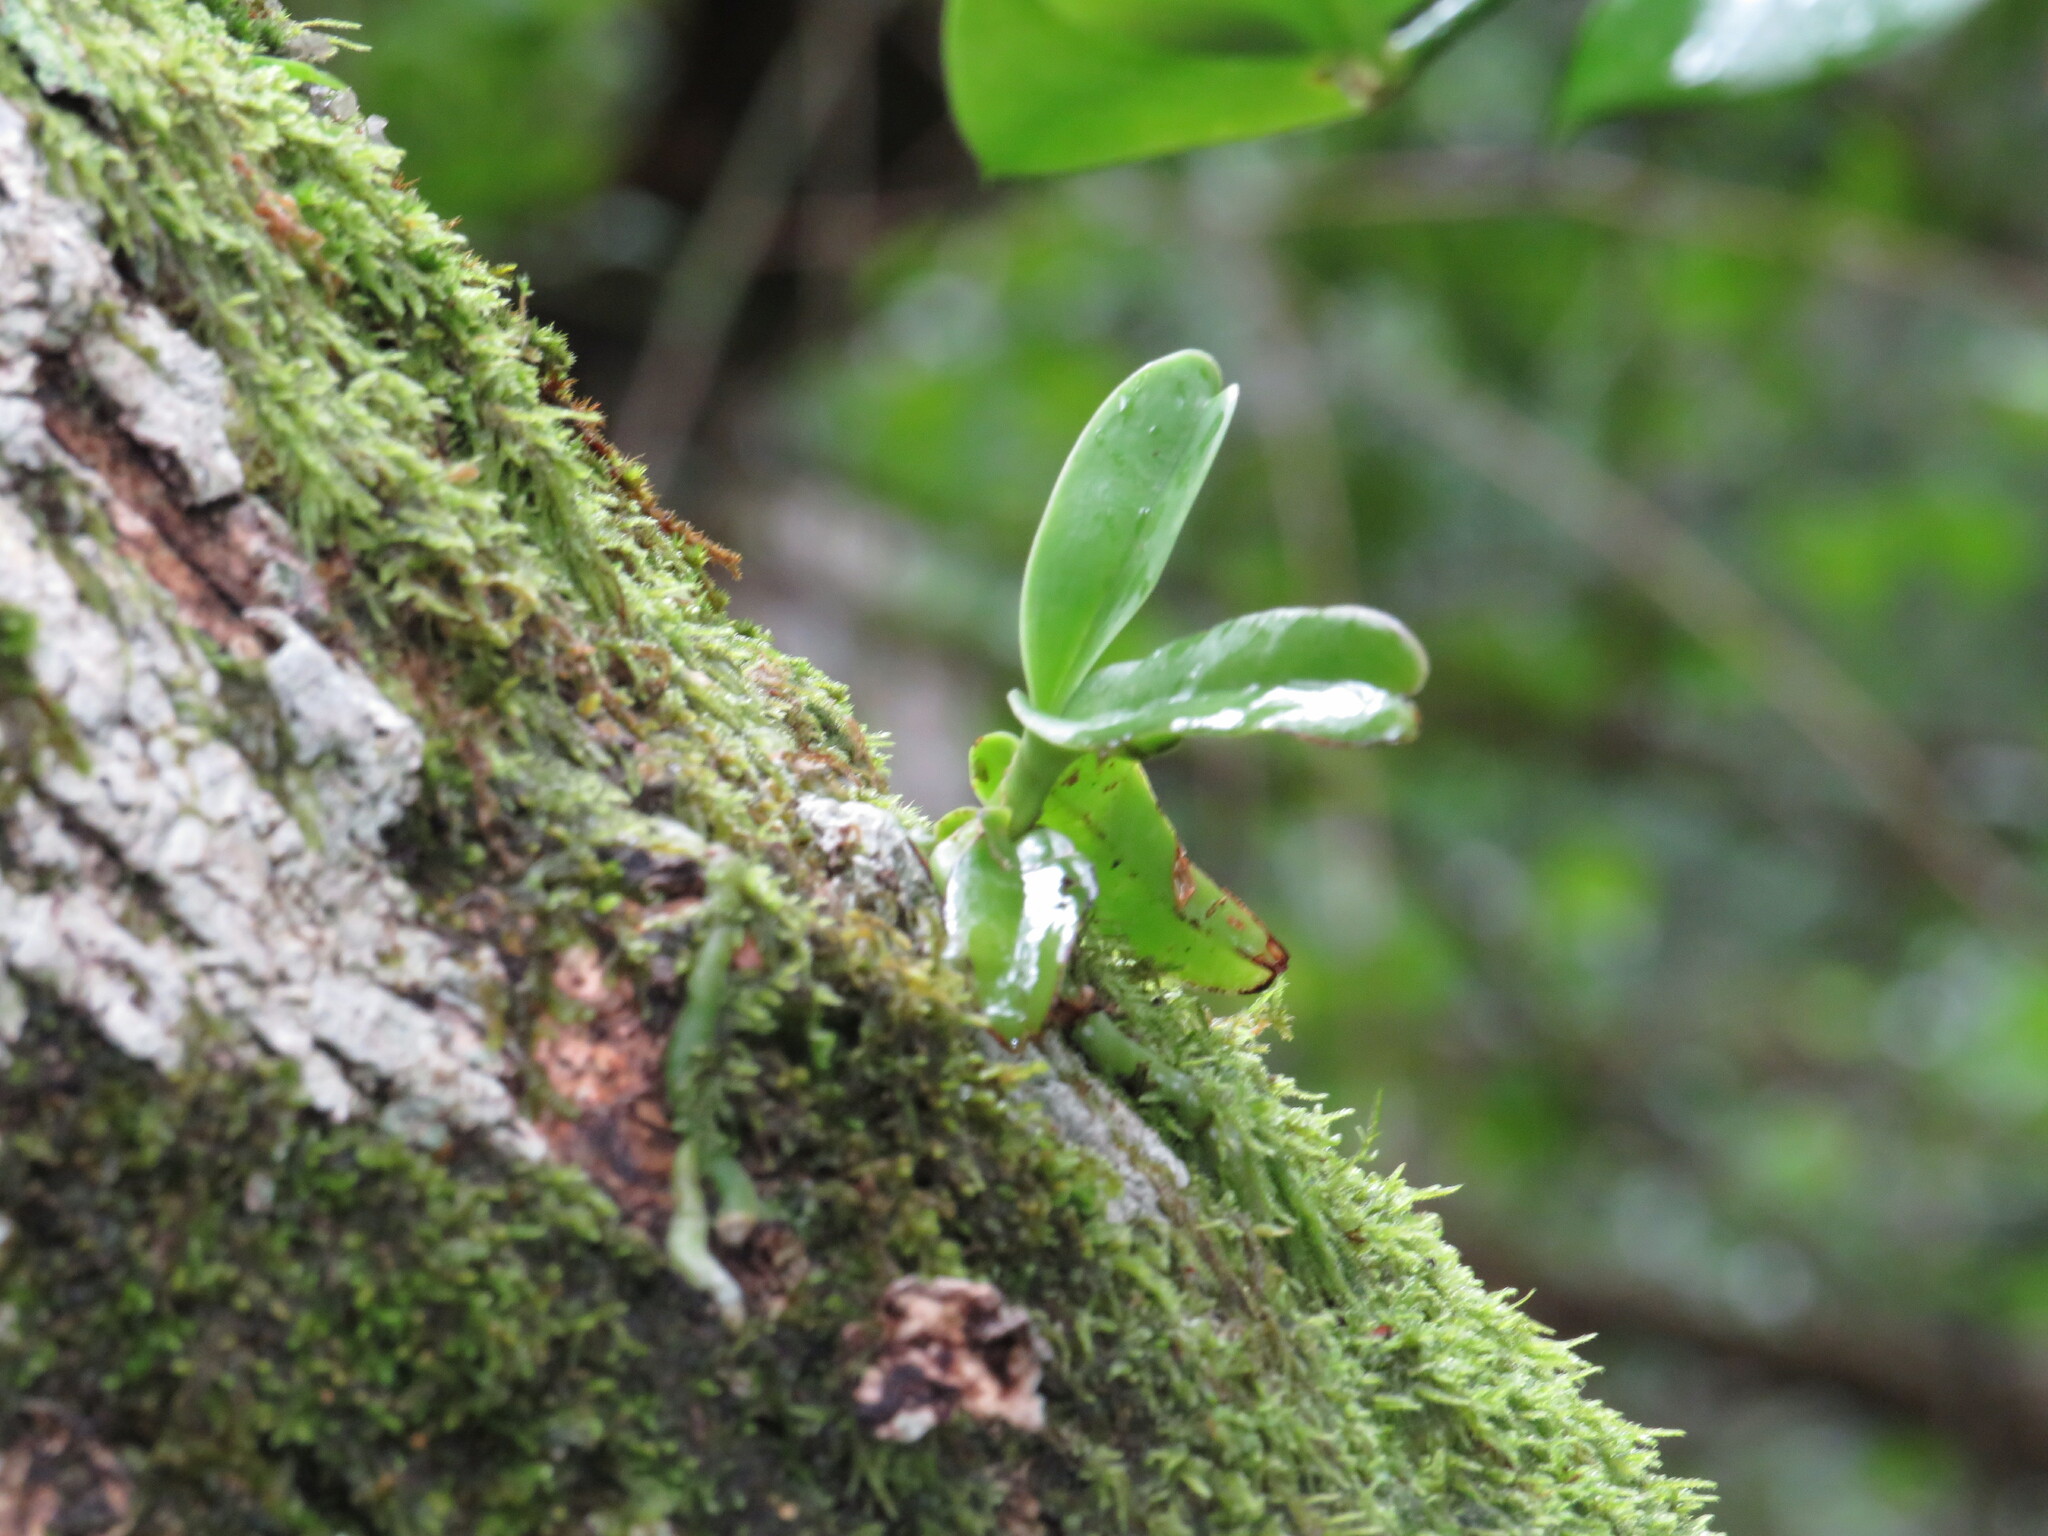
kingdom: Plantae
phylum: Tracheophyta
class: Liliopsida
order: Asparagales
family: Orchidaceae
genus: Cyrtorchis
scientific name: Cyrtorchis arcuata
